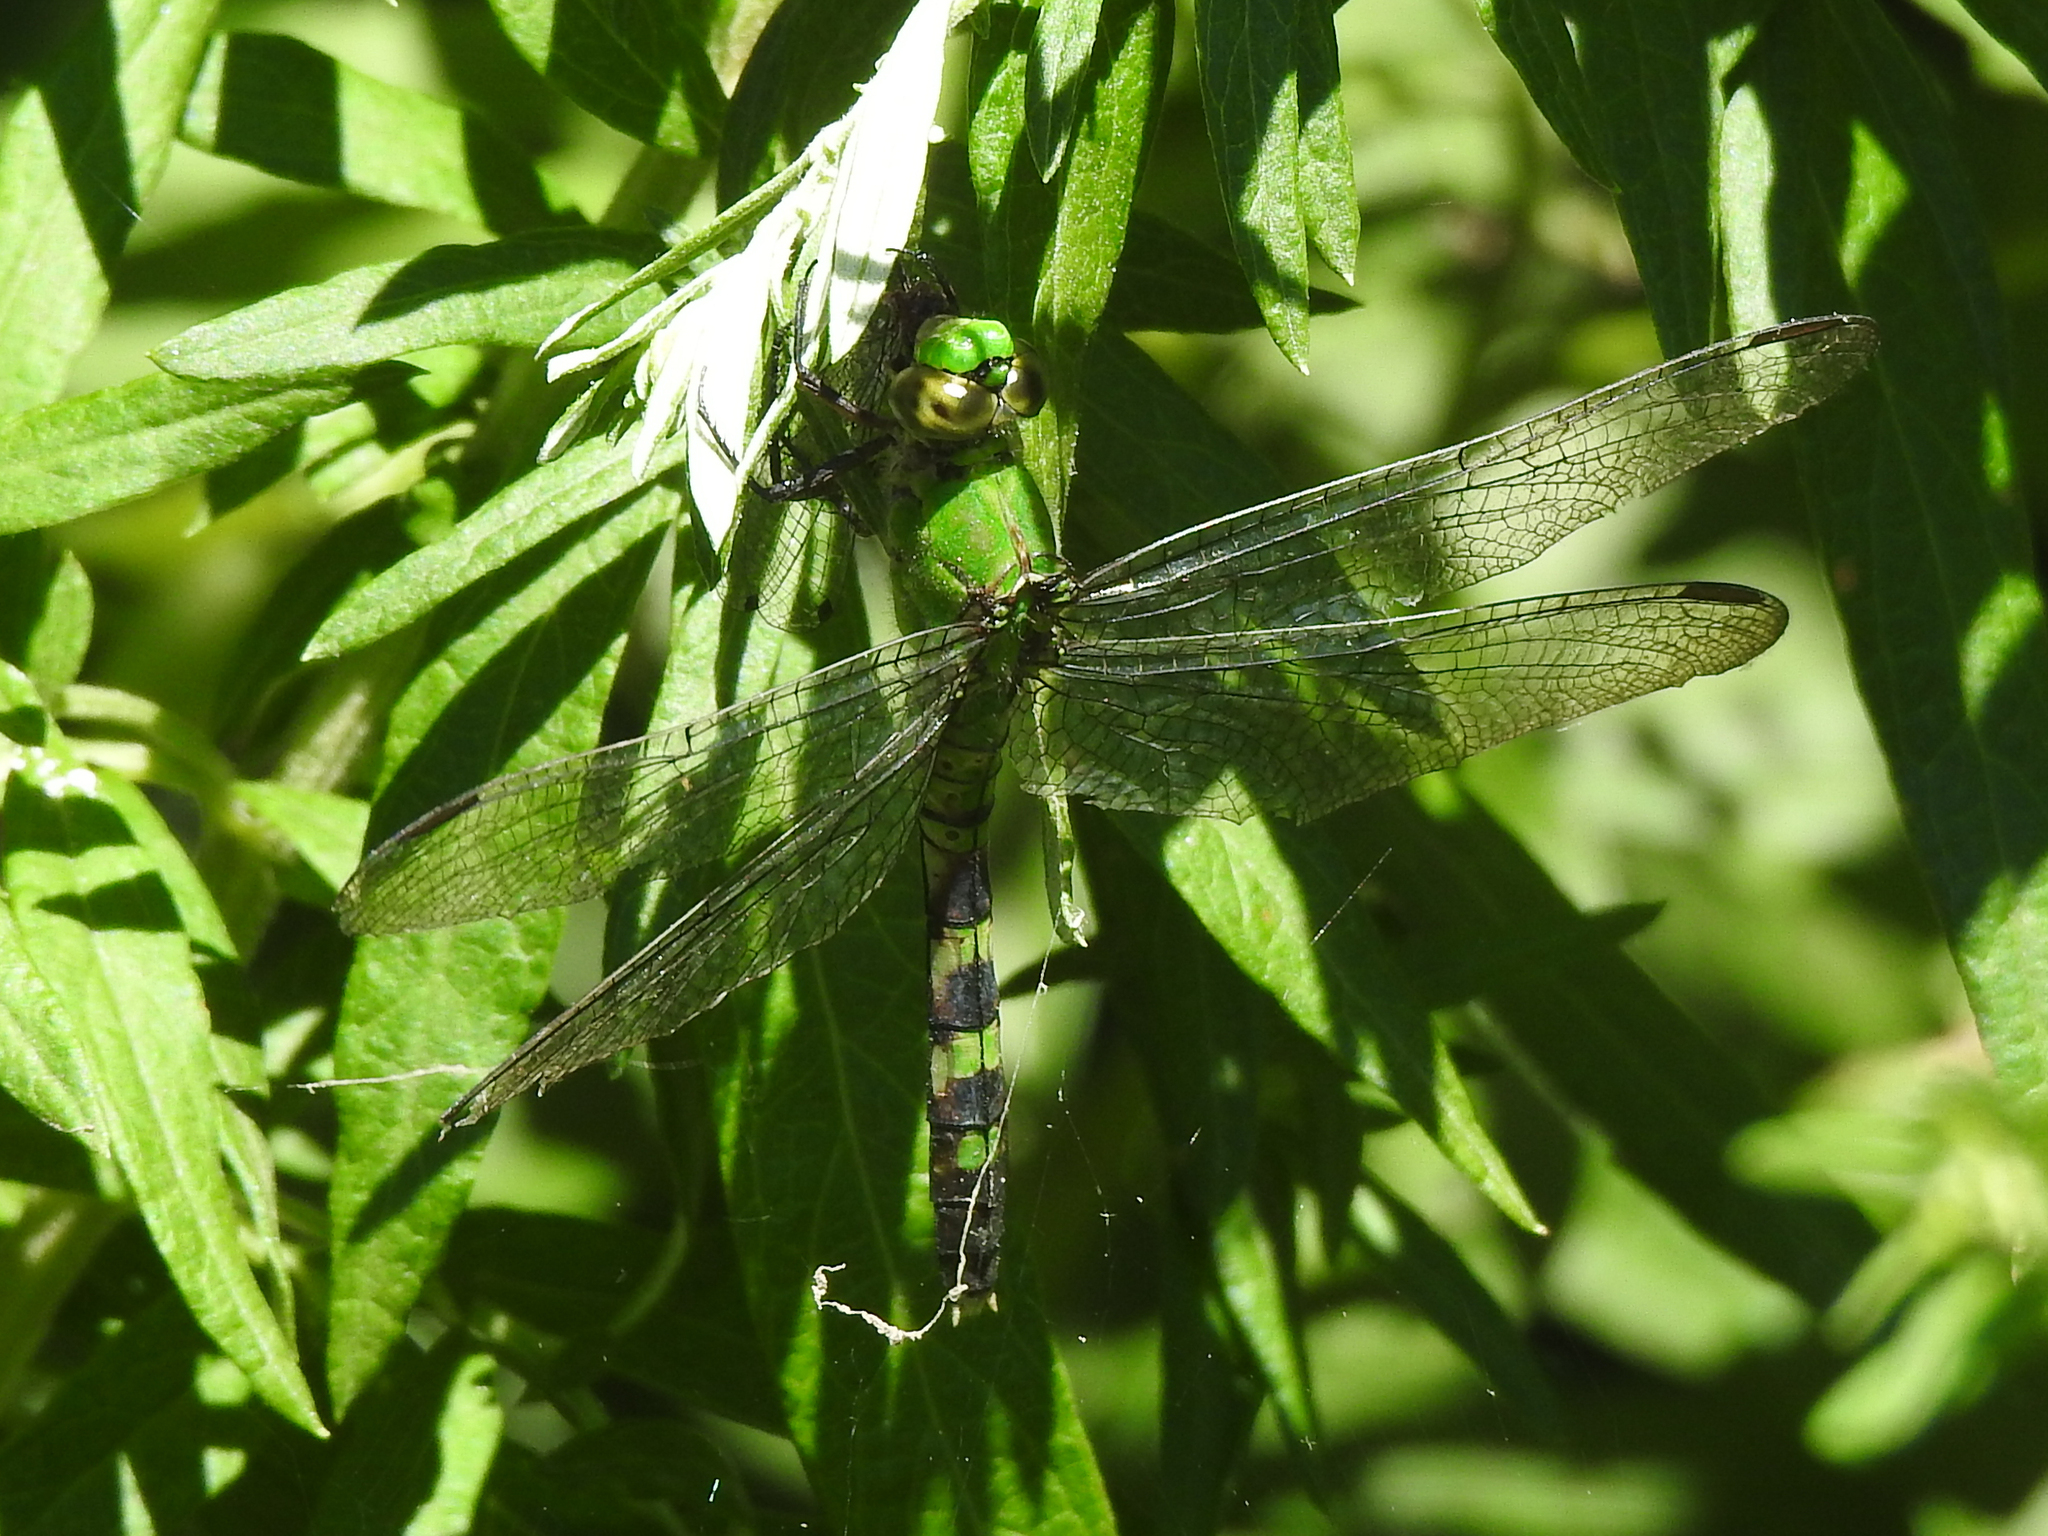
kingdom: Animalia
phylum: Arthropoda
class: Insecta
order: Odonata
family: Libellulidae
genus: Erythemis
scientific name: Erythemis simplicicollis
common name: Eastern pondhawk
